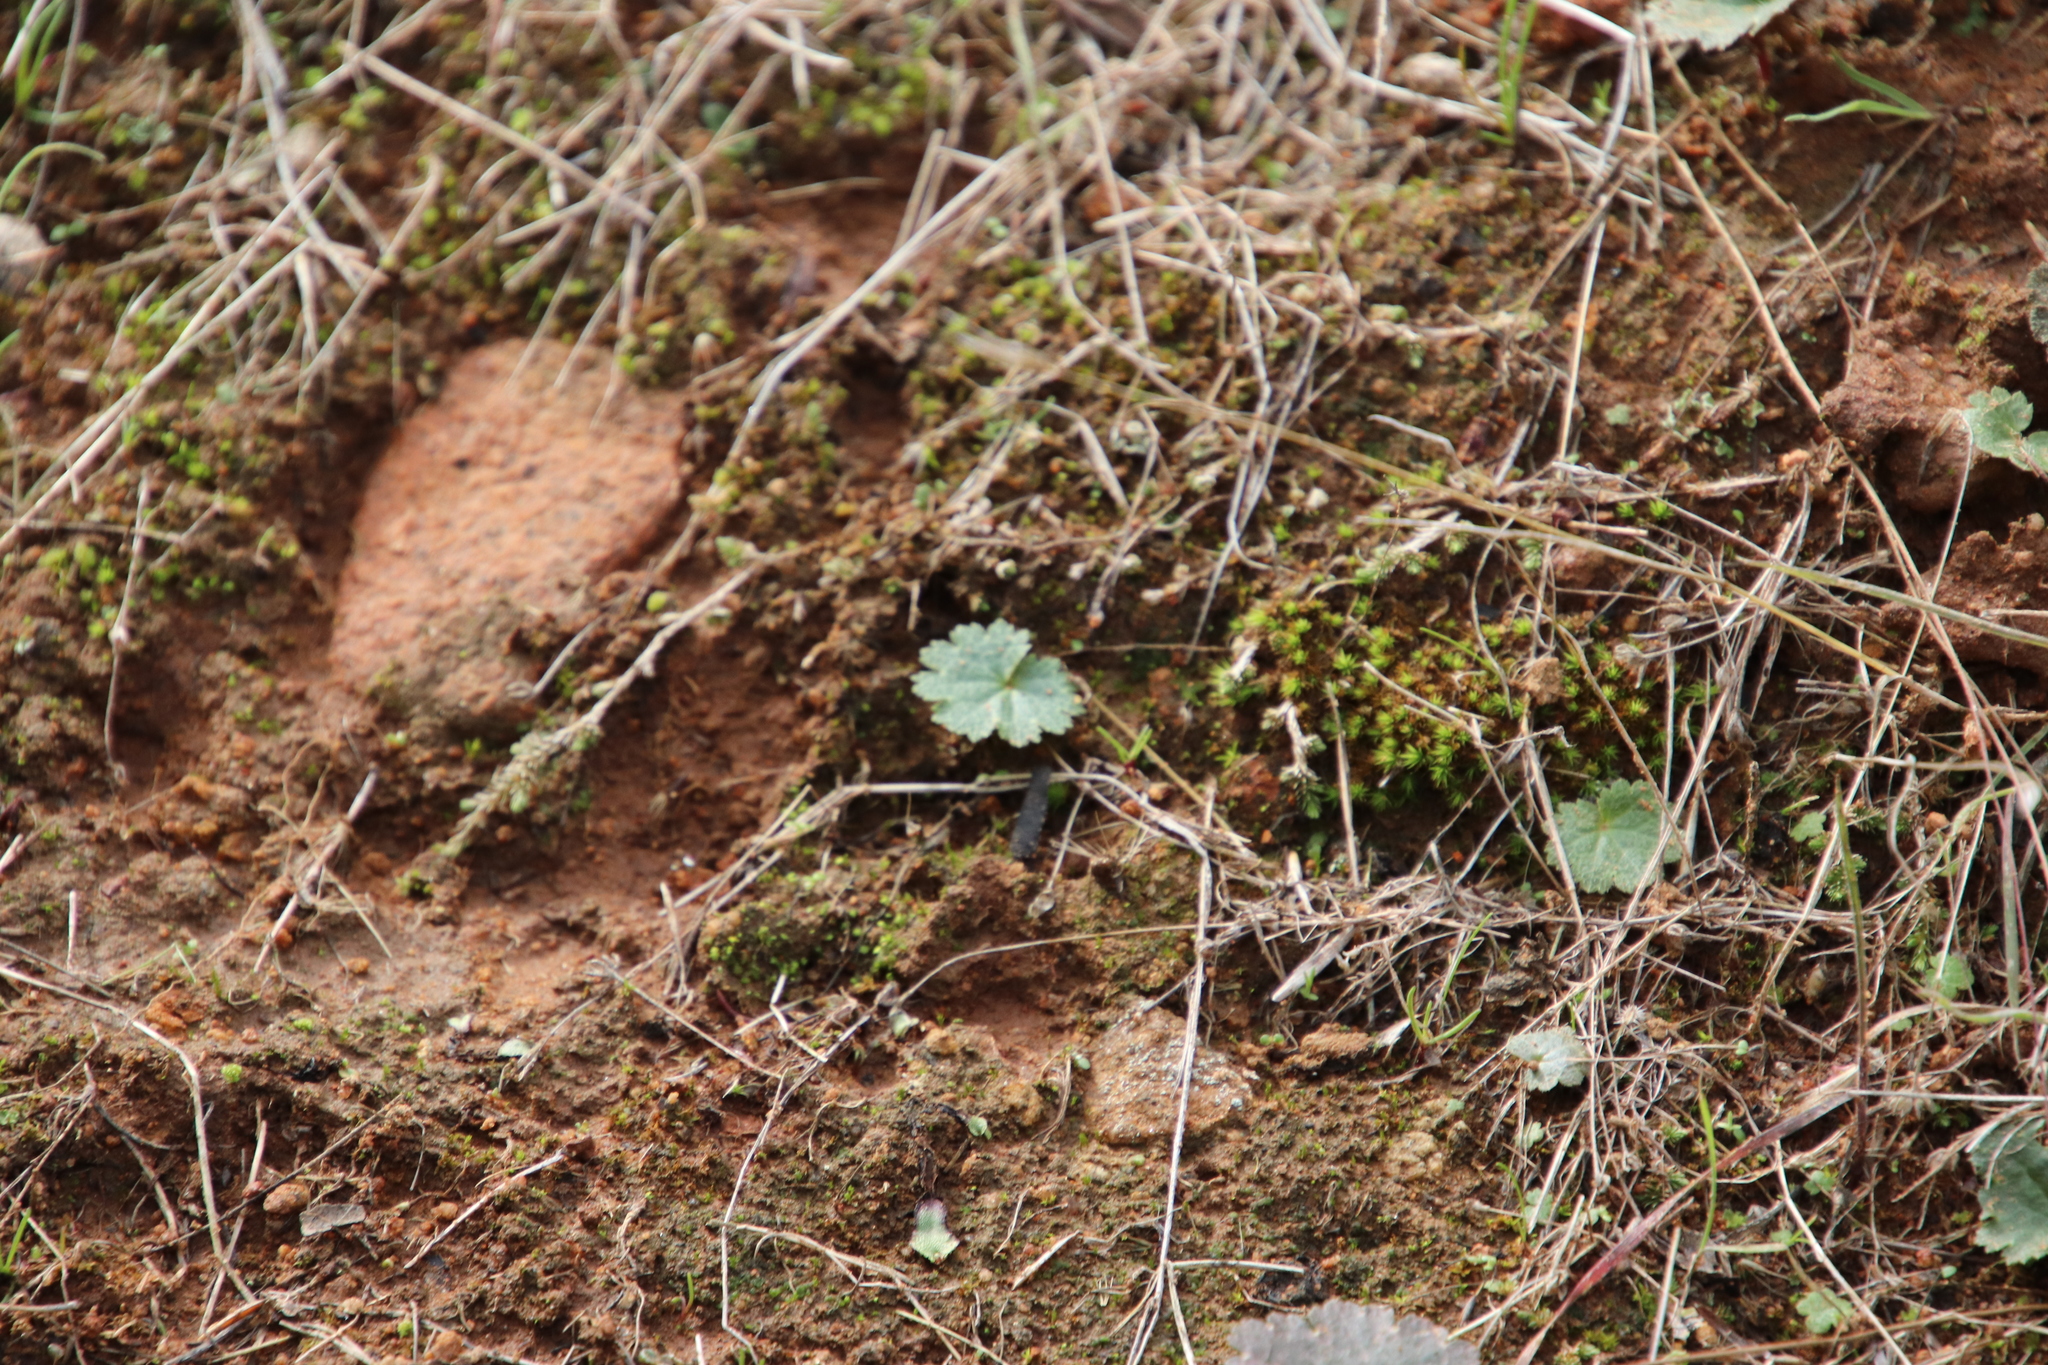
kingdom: Plantae
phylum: Tracheophyta
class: Magnoliopsida
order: Saxifragales
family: Saxifragaceae
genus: Jepsonia
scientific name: Jepsonia parryi
